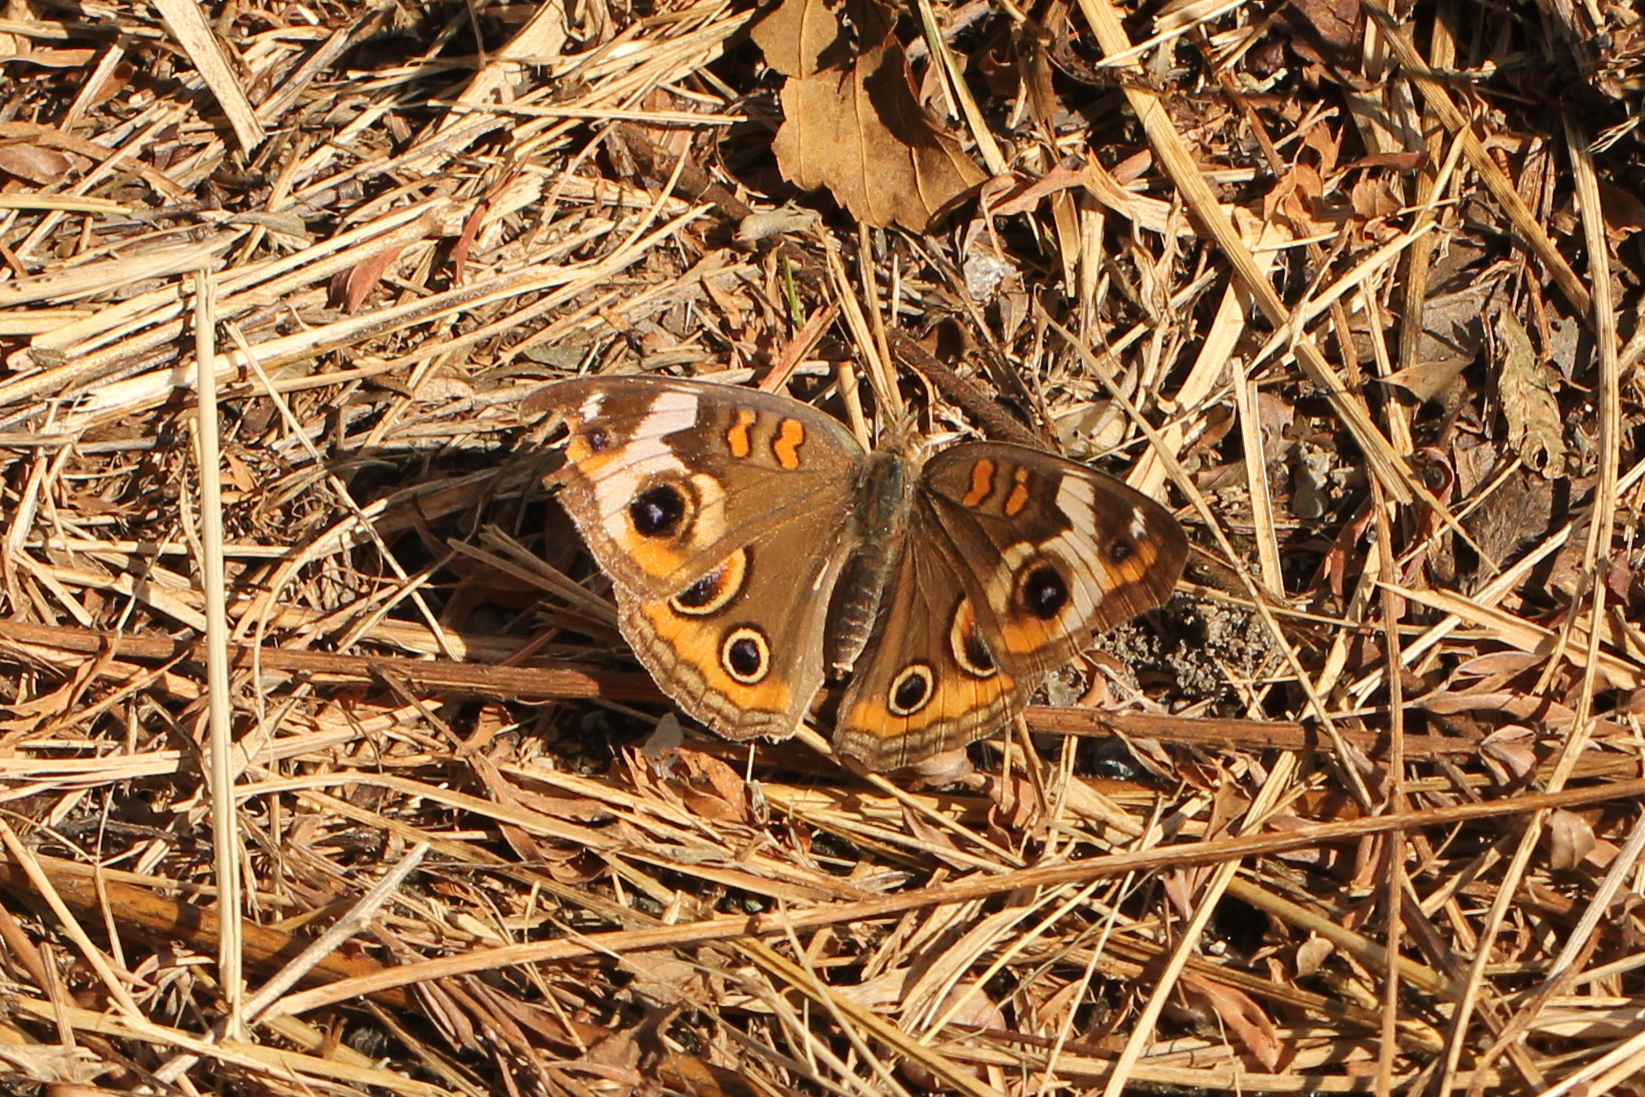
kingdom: Animalia
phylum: Arthropoda
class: Insecta
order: Lepidoptera
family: Nymphalidae
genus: Junonia
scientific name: Junonia coenia
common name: Common buckeye
